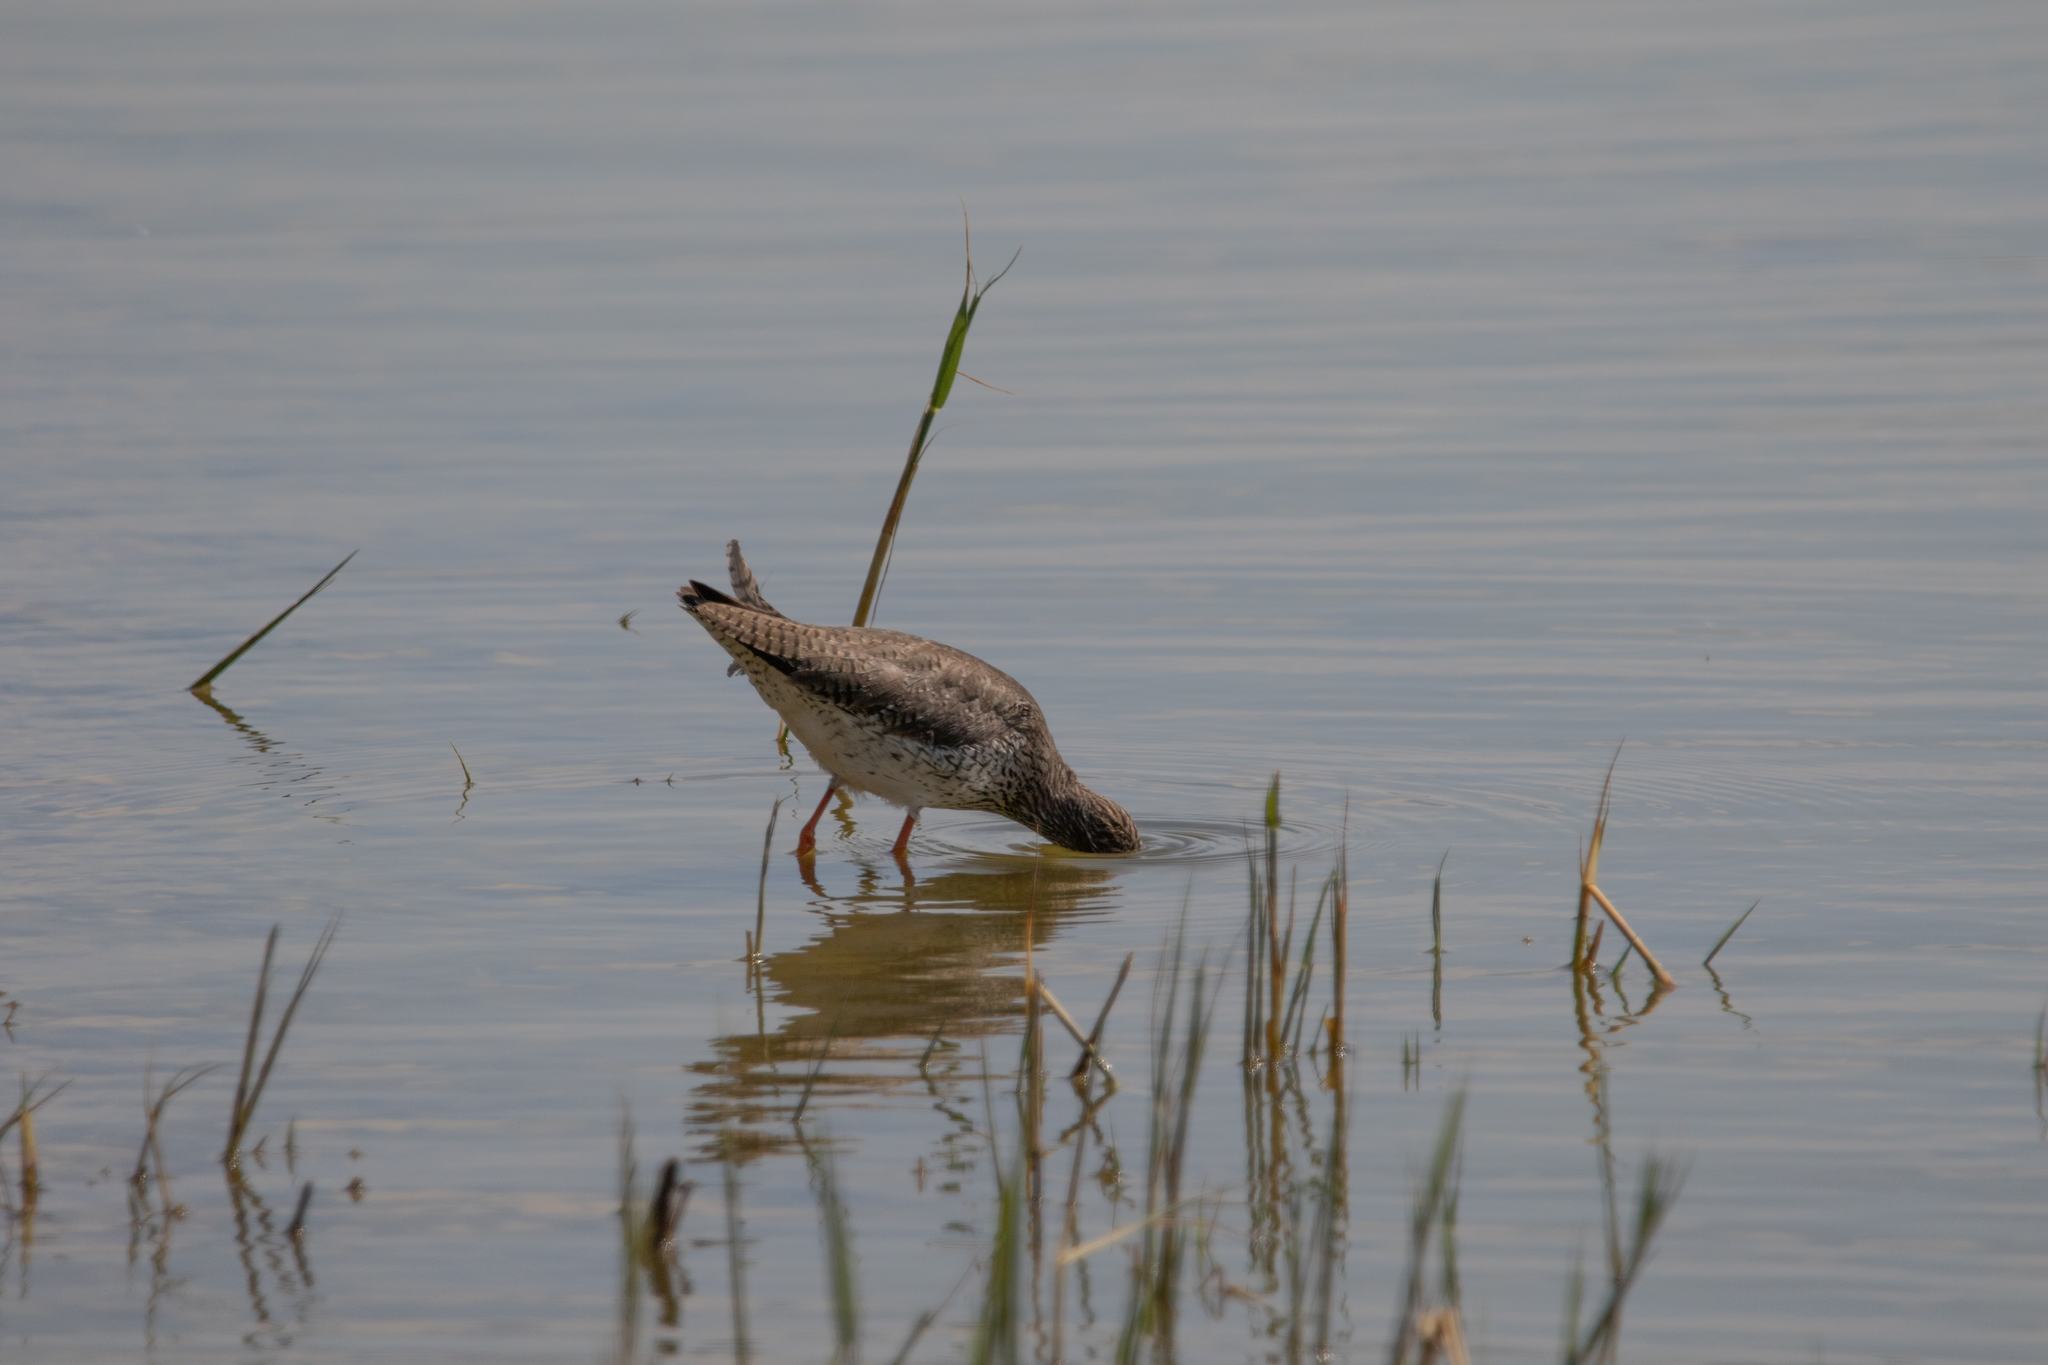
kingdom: Animalia
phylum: Chordata
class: Aves
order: Charadriiformes
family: Scolopacidae
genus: Tringa
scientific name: Tringa totanus
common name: Common redshank
